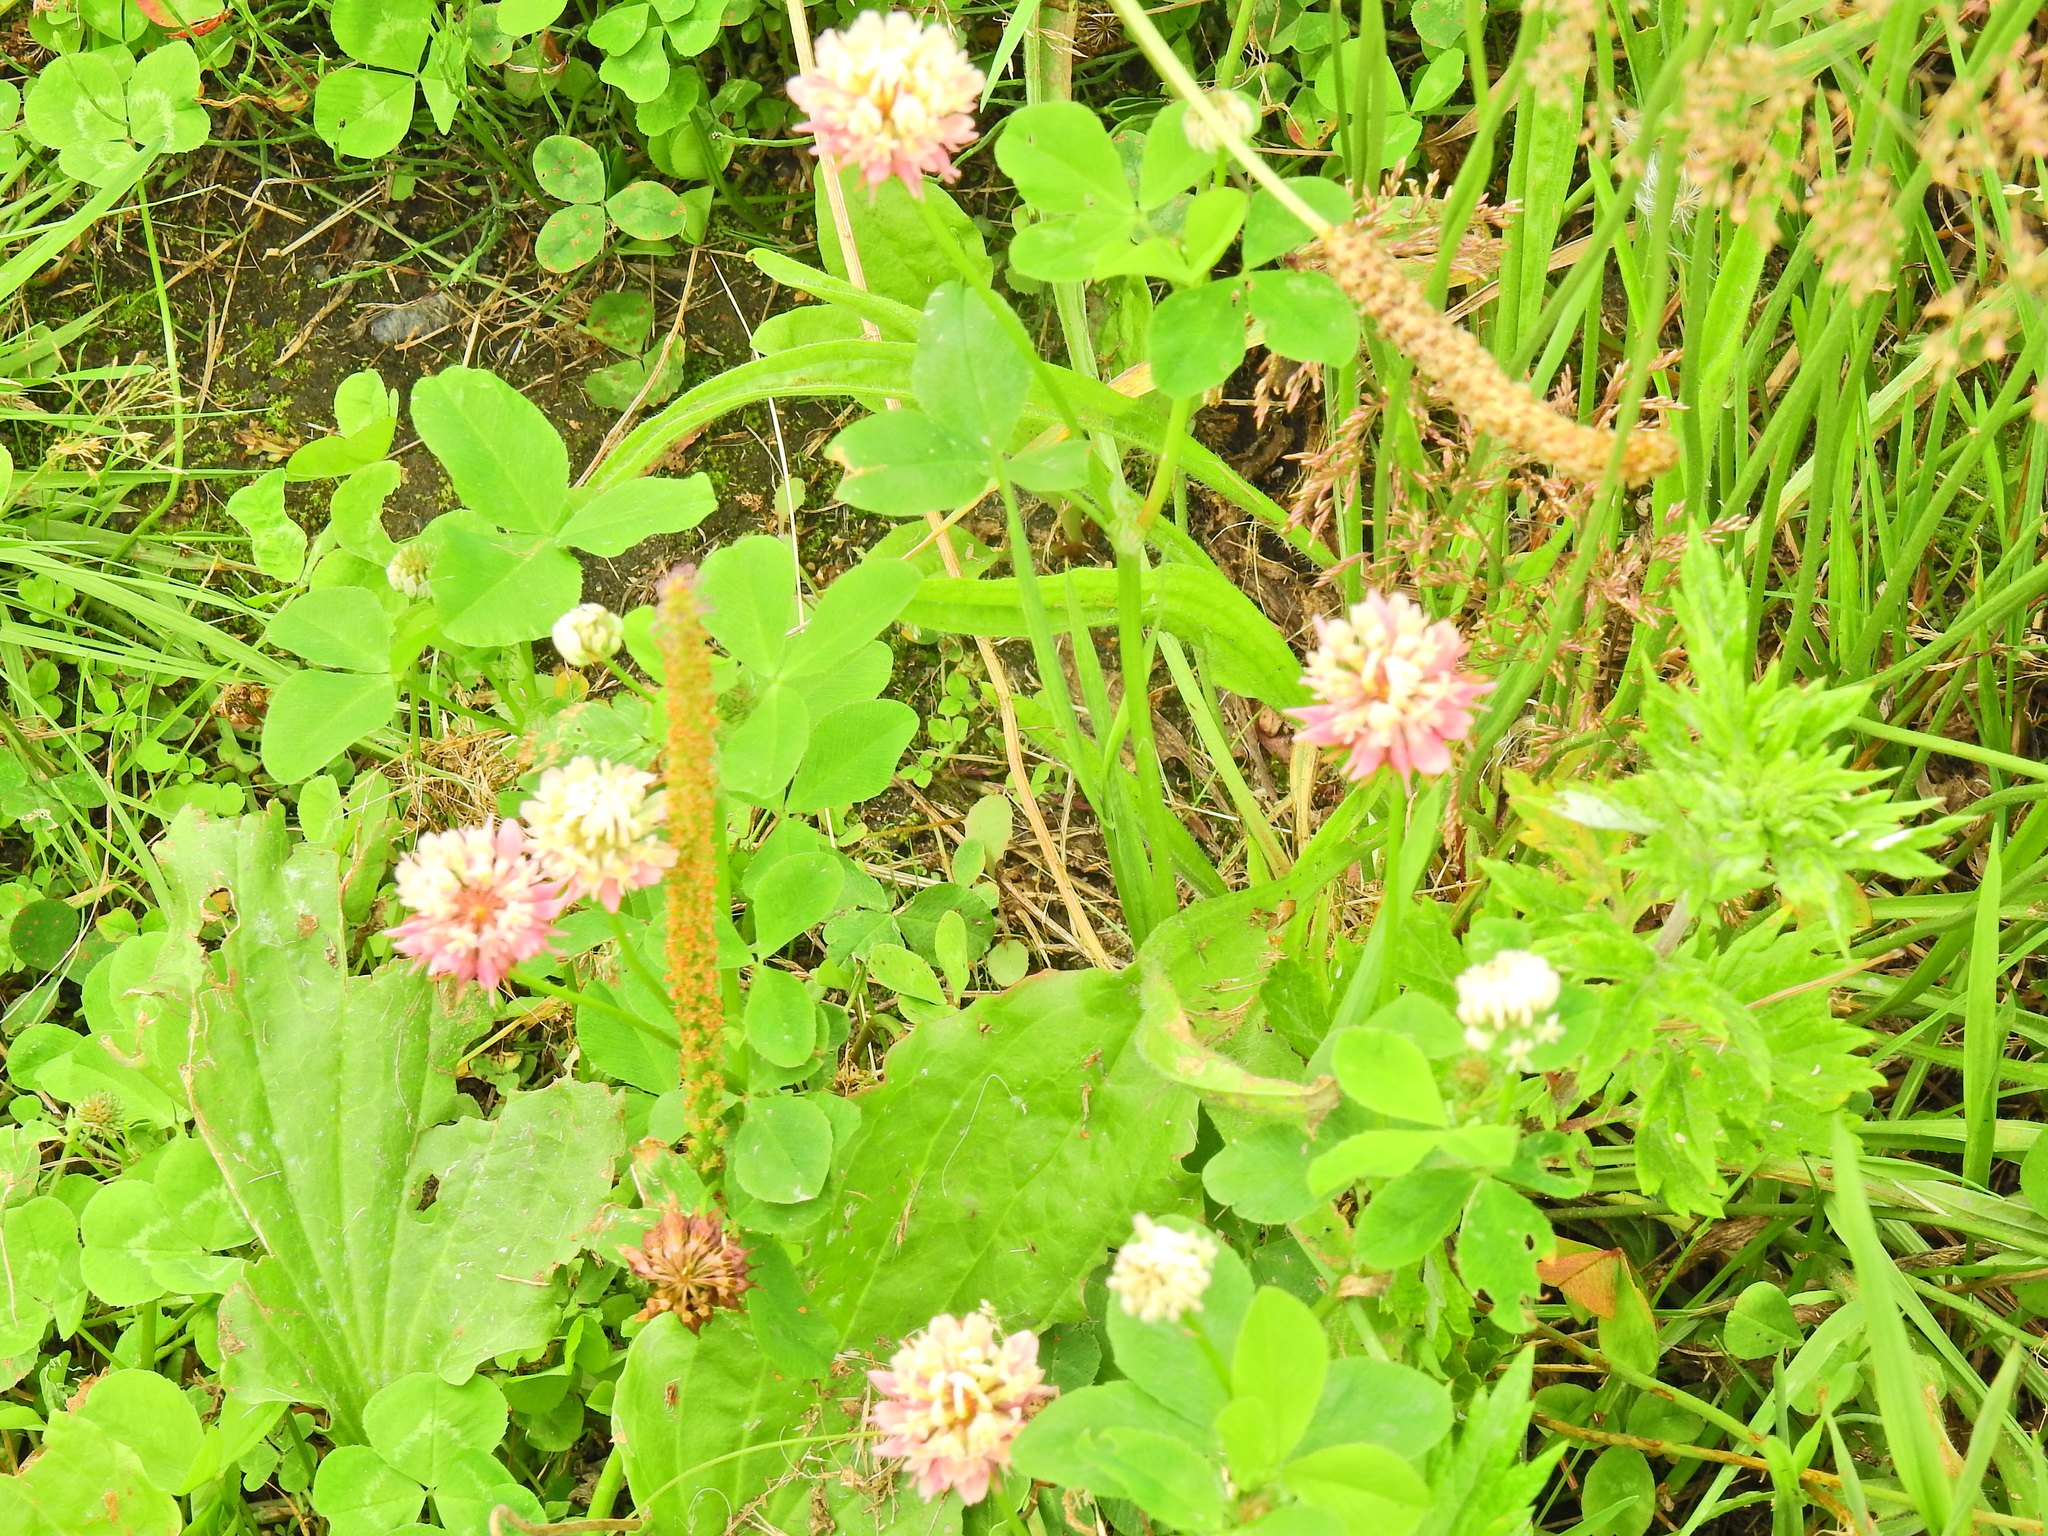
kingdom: Plantae
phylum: Tracheophyta
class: Magnoliopsida
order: Fabales
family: Fabaceae
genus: Trifolium
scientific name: Trifolium hybridum
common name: Alsike clover
